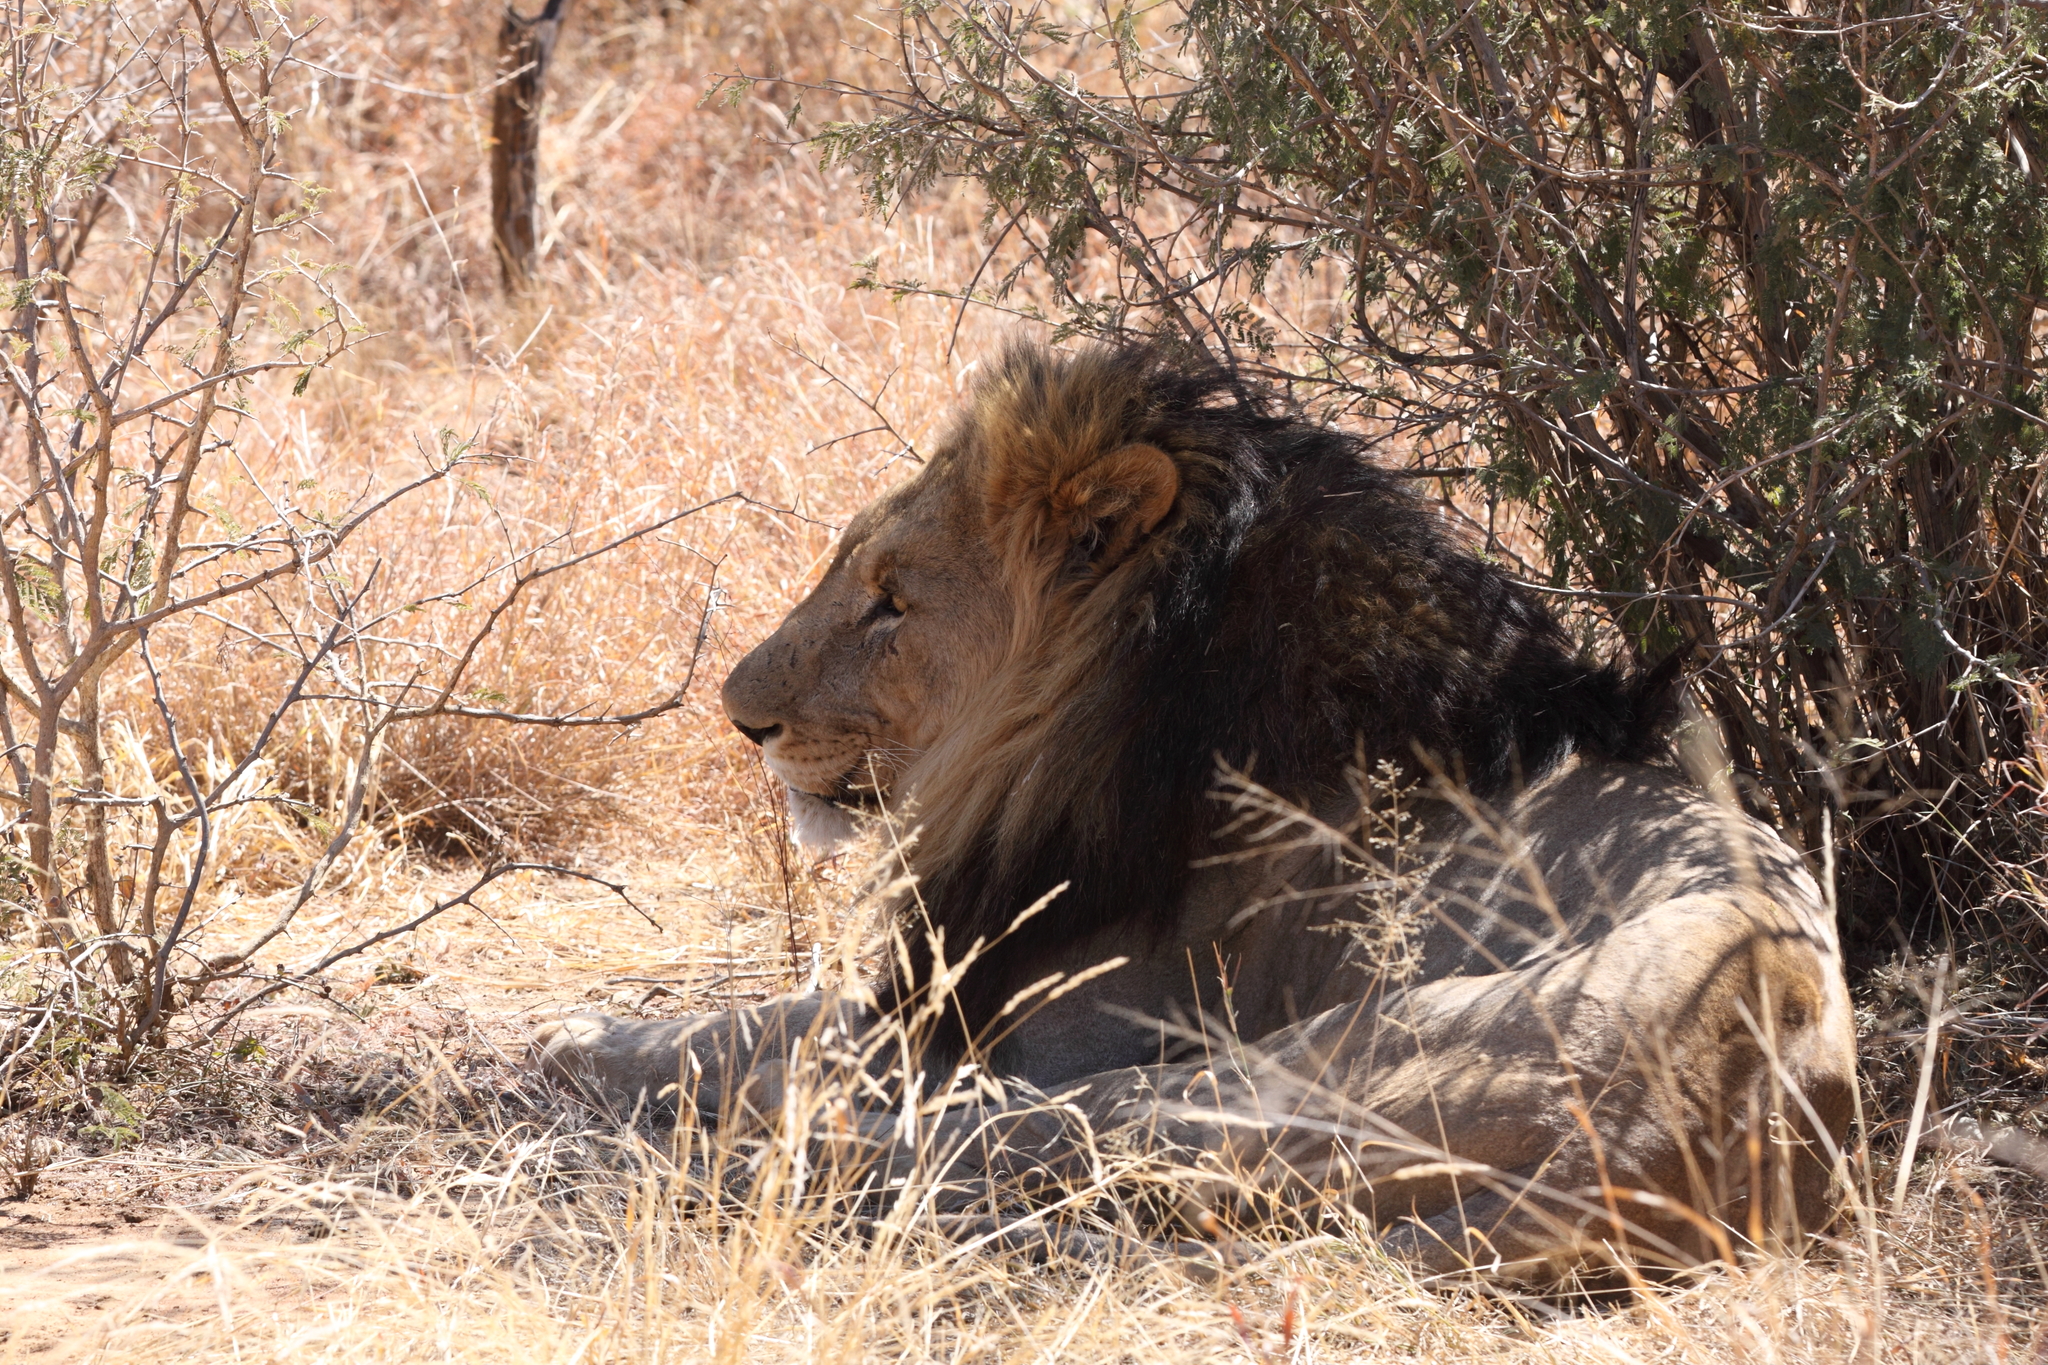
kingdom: Animalia
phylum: Chordata
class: Mammalia
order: Carnivora
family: Felidae
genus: Panthera
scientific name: Panthera leo
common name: Lion
